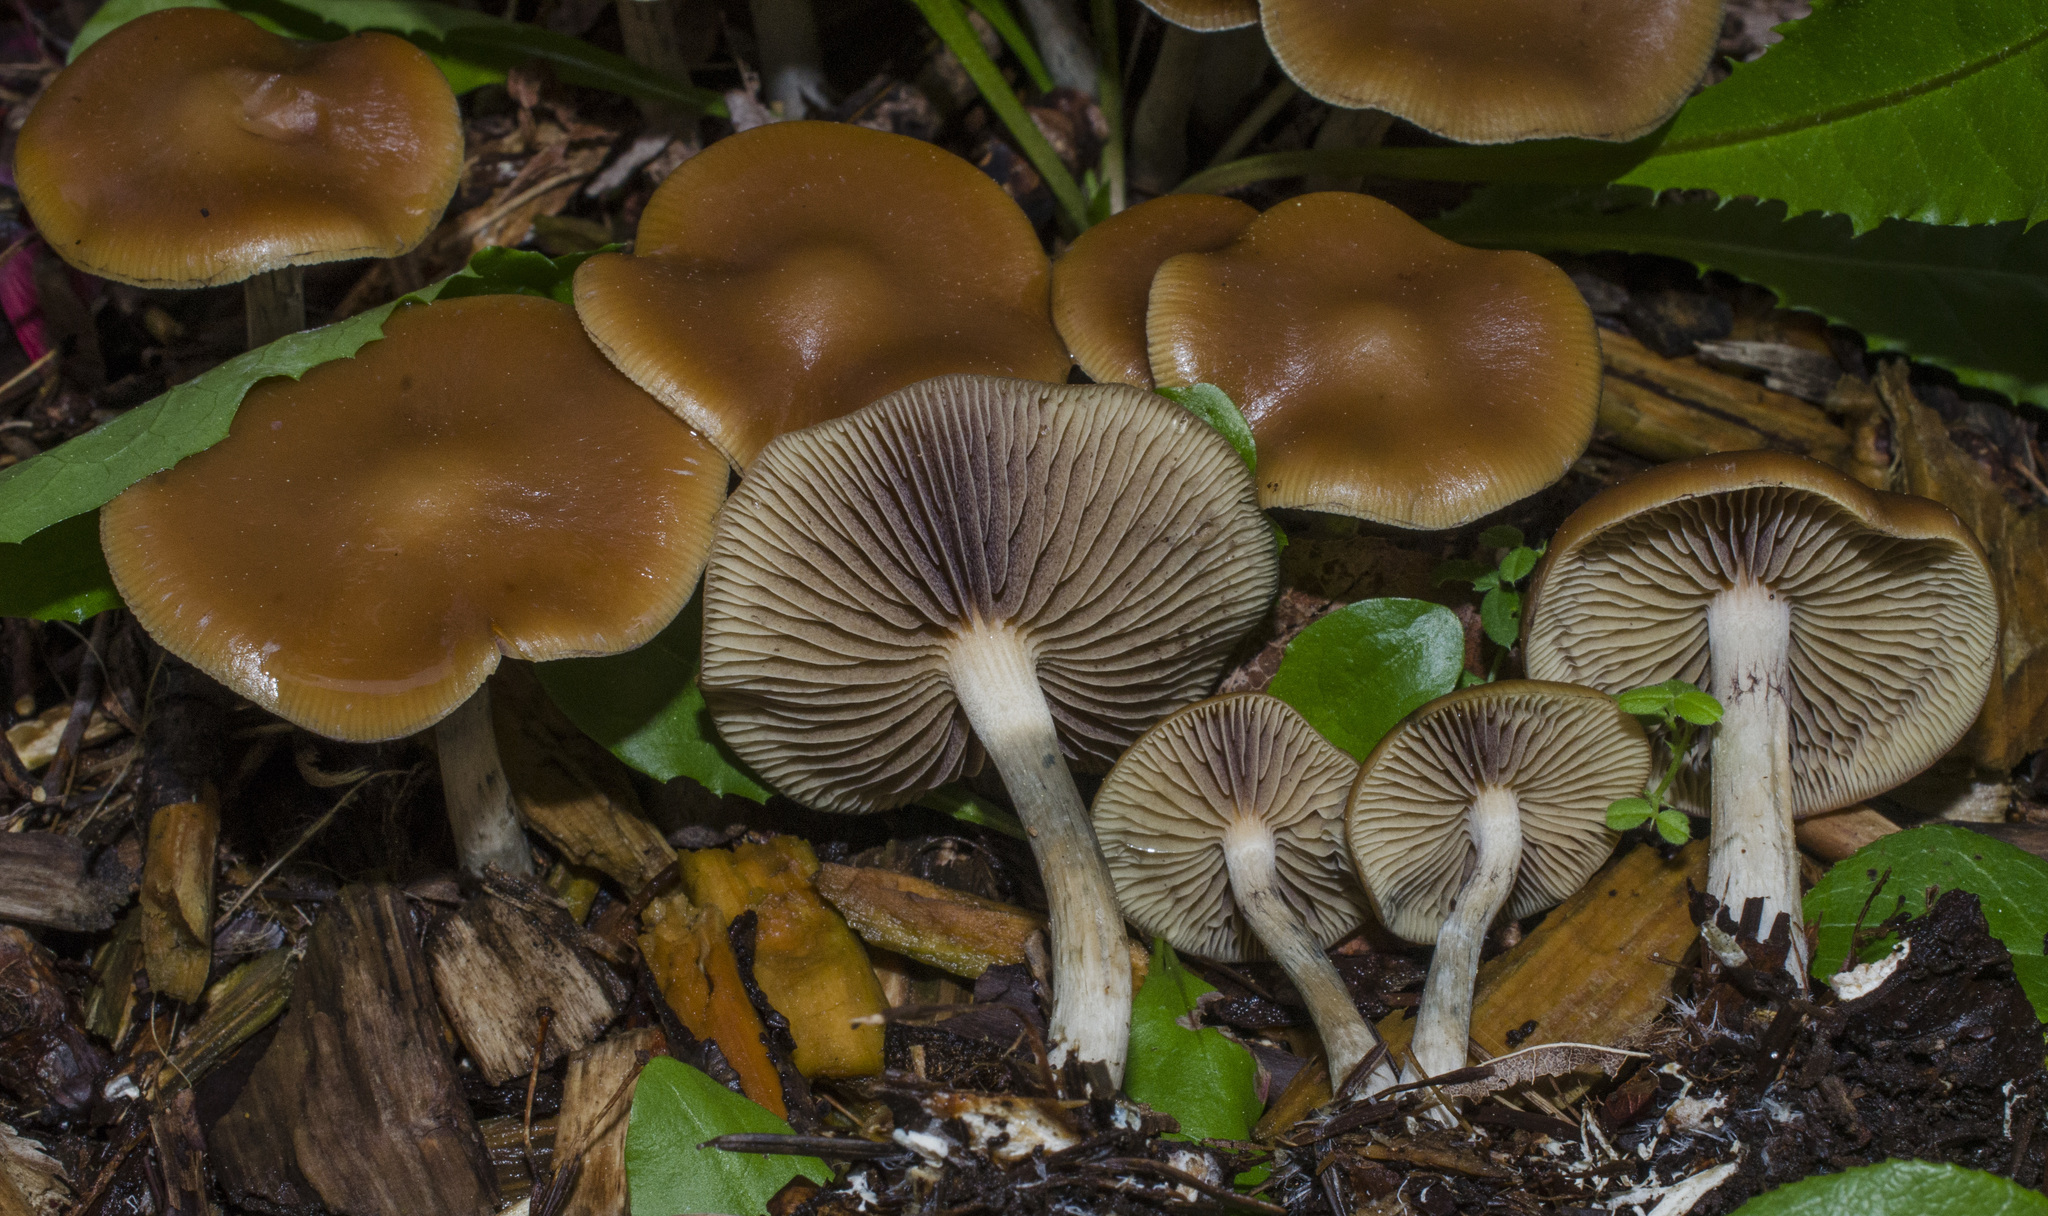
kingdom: Fungi
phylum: Basidiomycota
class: Agaricomycetes
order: Agaricales
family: Hymenogastraceae
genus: Psilocybe
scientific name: Psilocybe cyanescens
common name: Blueleg brownie
